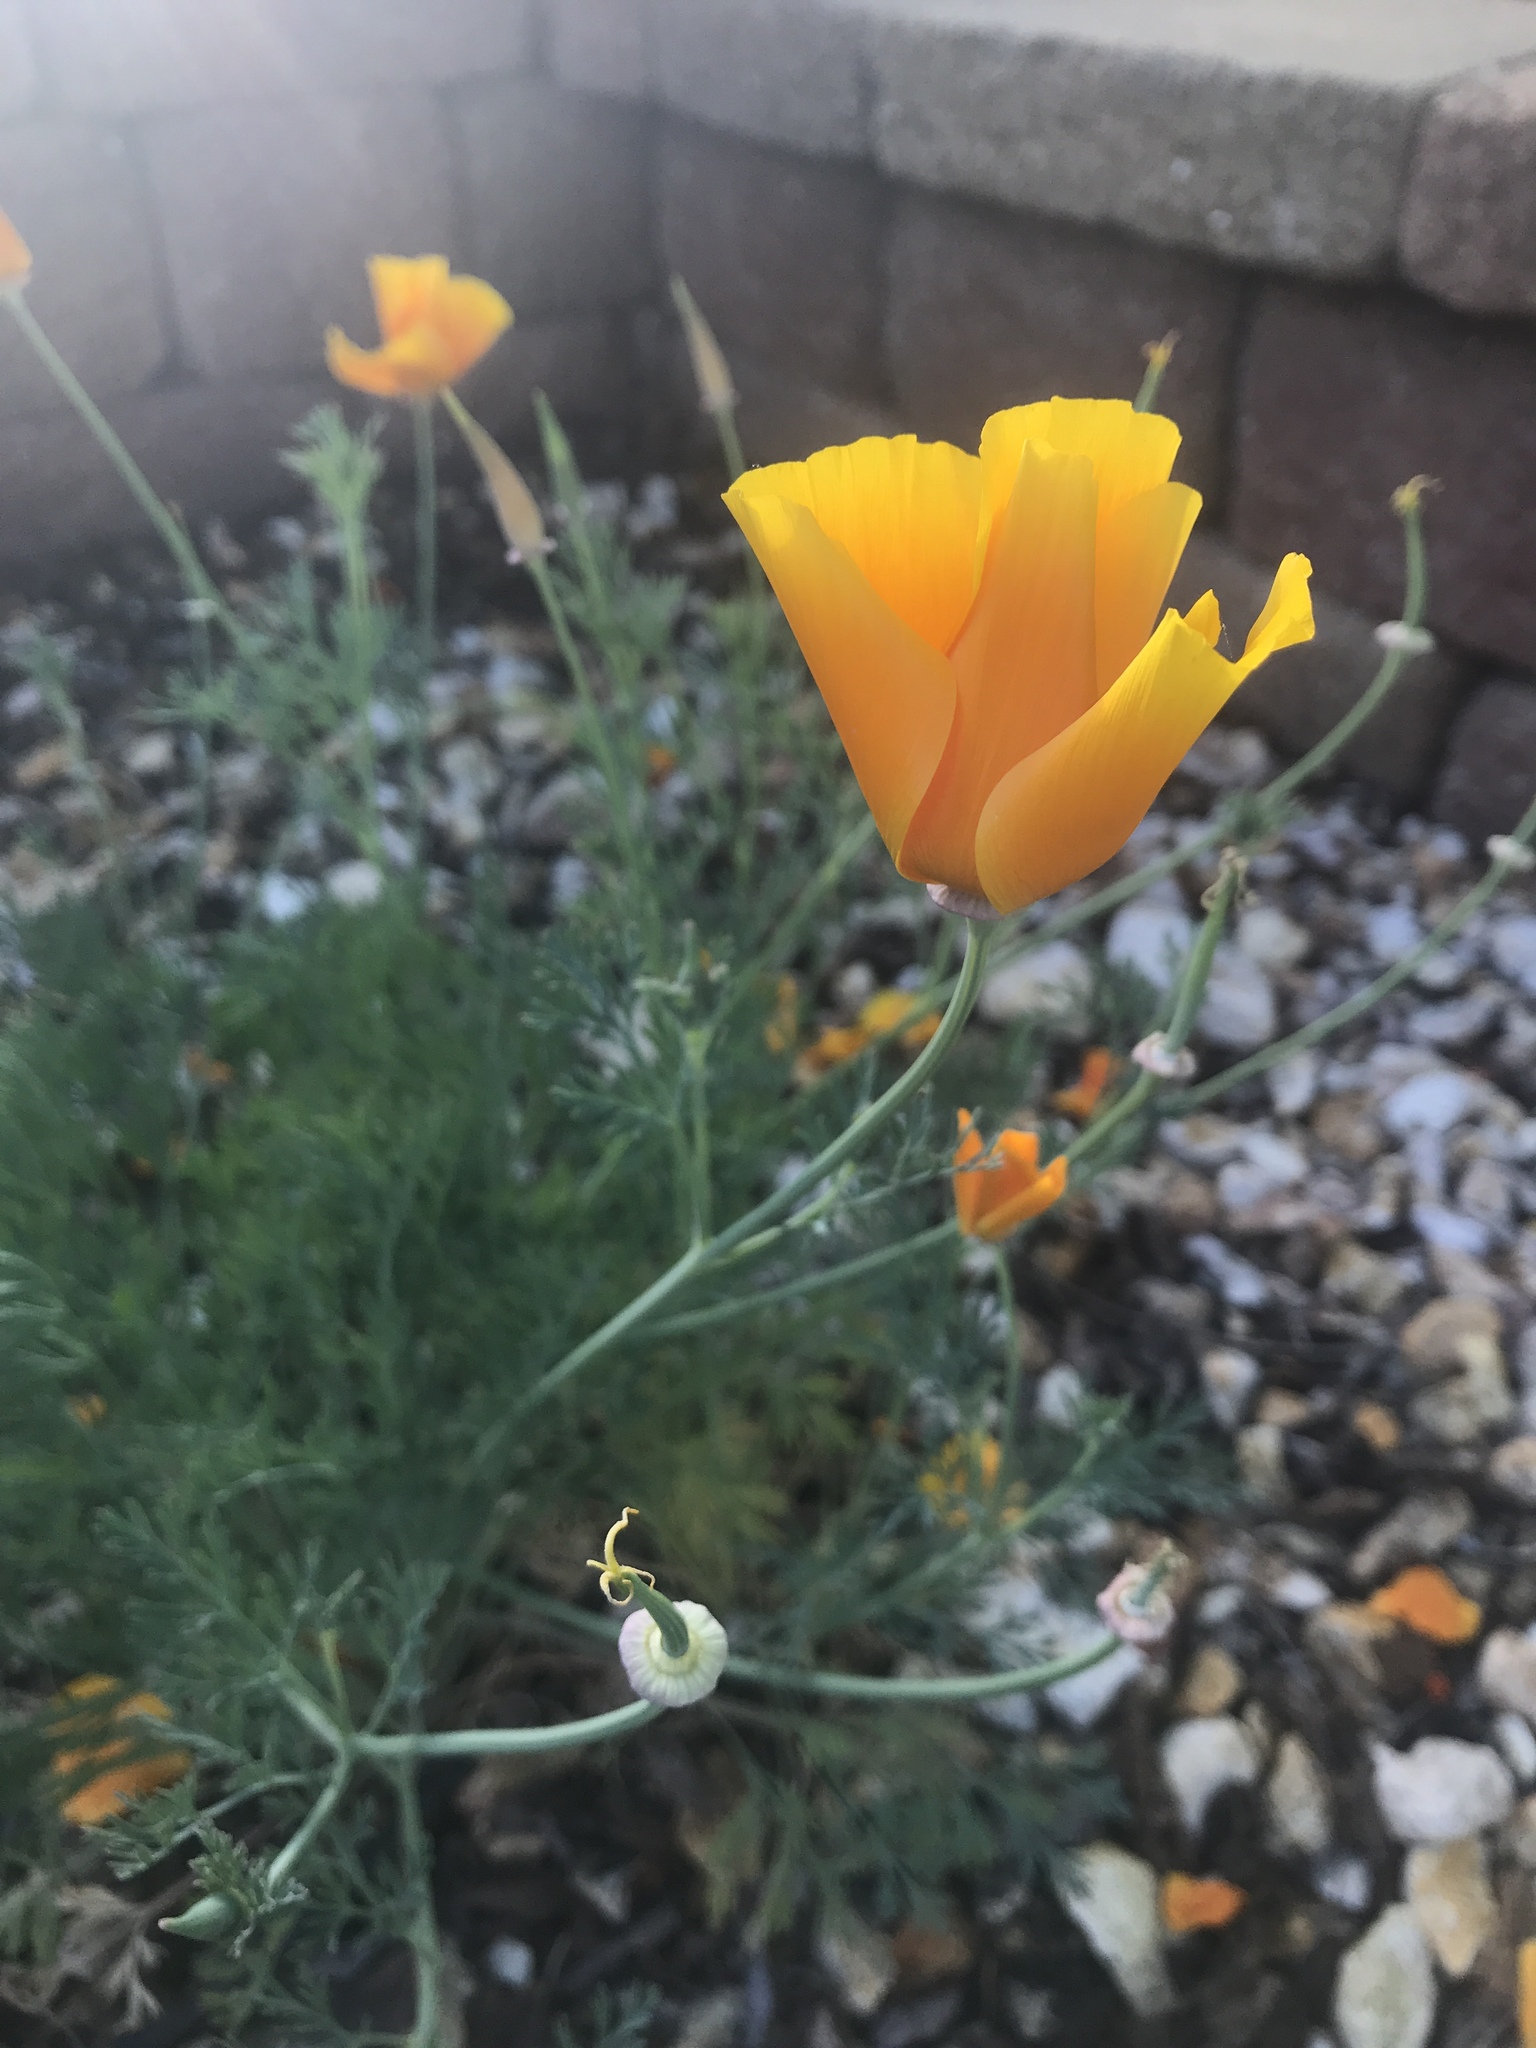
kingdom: Plantae
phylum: Tracheophyta
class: Magnoliopsida
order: Ranunculales
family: Papaveraceae
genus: Eschscholzia
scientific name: Eschscholzia californica
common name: California poppy
